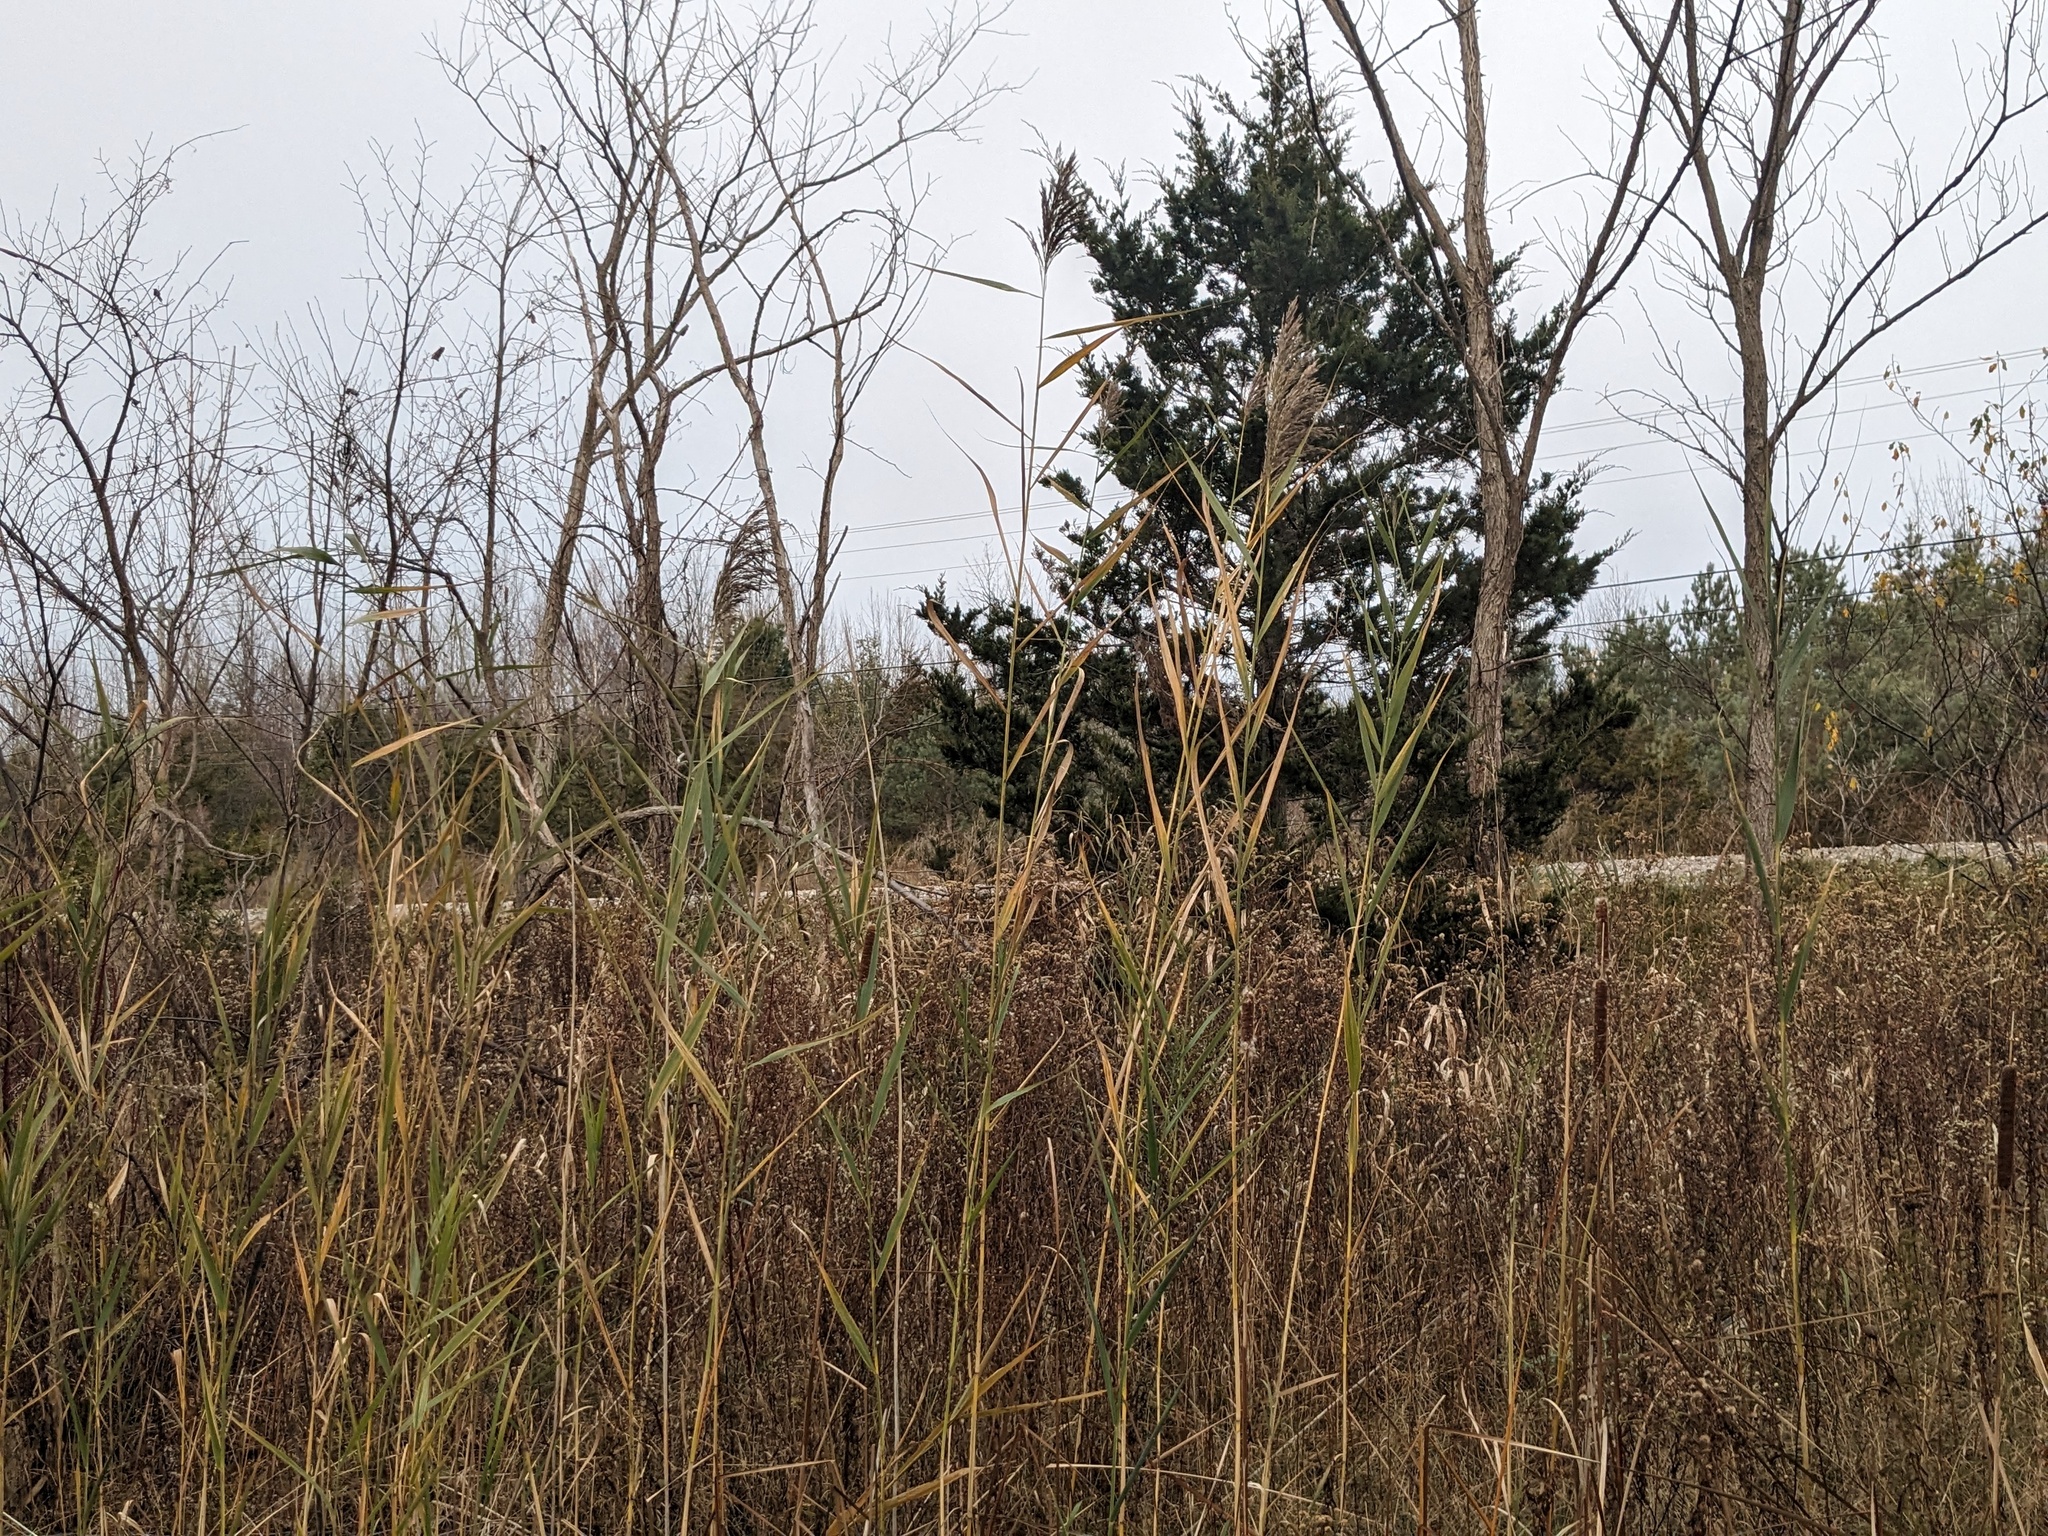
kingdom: Plantae
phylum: Tracheophyta
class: Liliopsida
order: Poales
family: Poaceae
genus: Phragmites
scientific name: Phragmites australis
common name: Common reed
